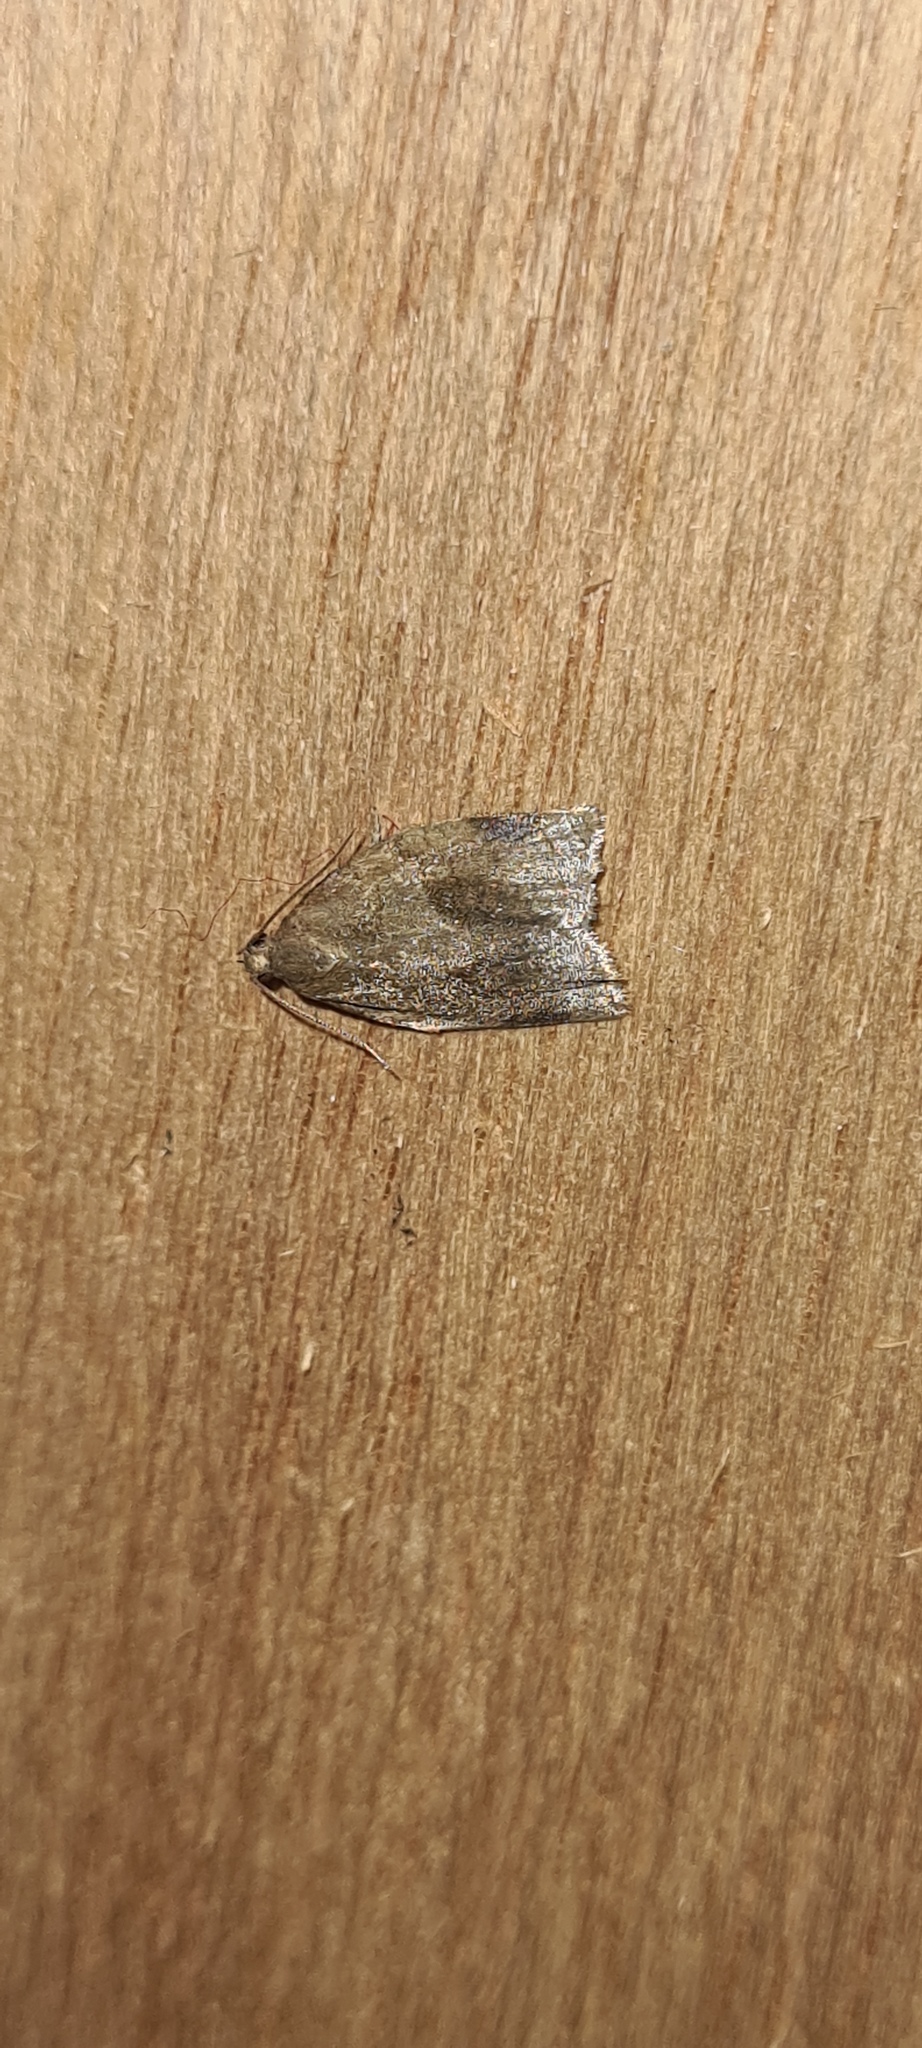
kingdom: Animalia
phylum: Arthropoda
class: Insecta
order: Lepidoptera
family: Tortricidae
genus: Archips
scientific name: Archips rosana
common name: Rose tortrix
